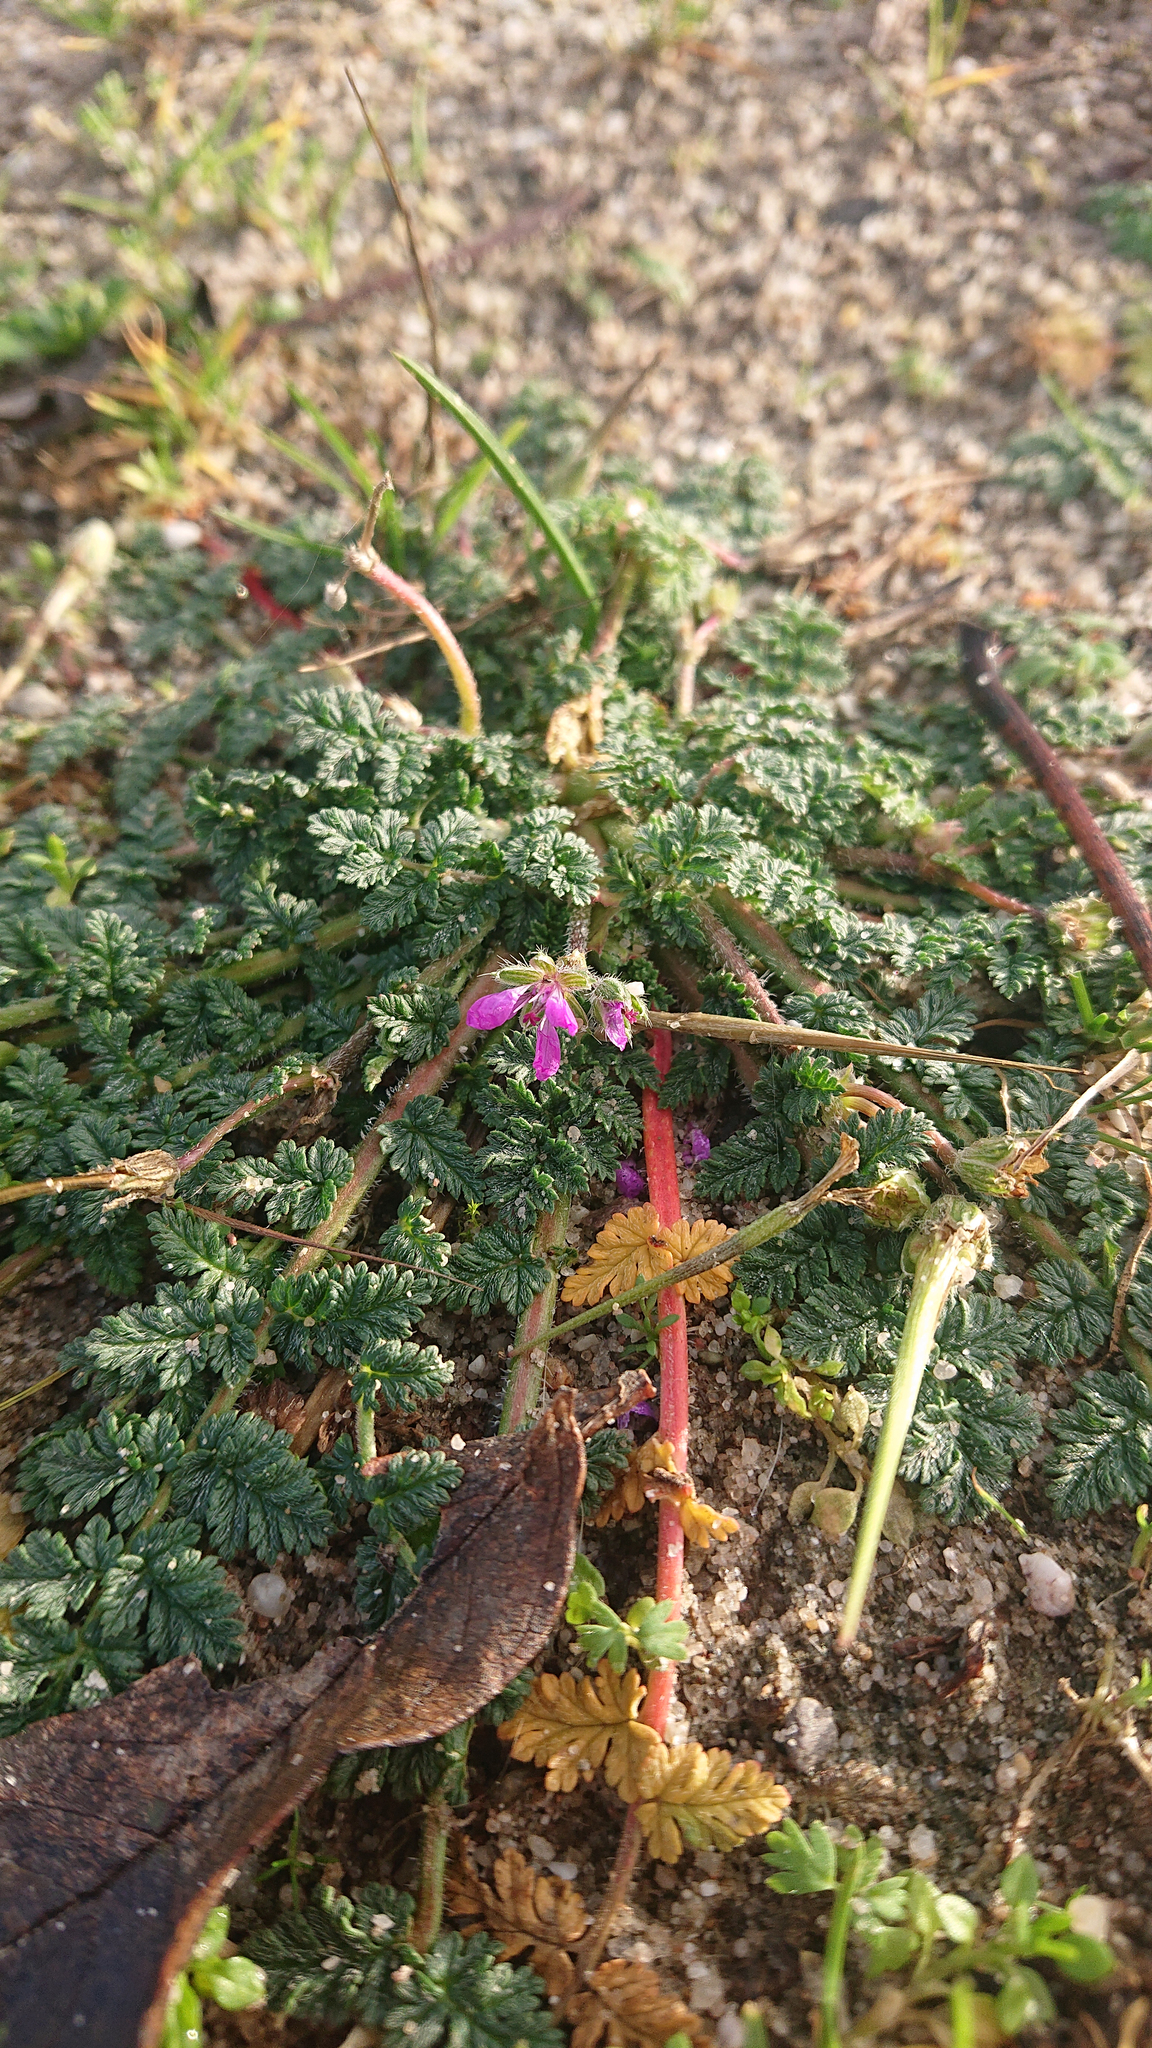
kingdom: Plantae
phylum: Tracheophyta
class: Magnoliopsida
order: Geraniales
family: Geraniaceae
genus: Erodium
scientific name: Erodium cicutarium
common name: Common stork's-bill
